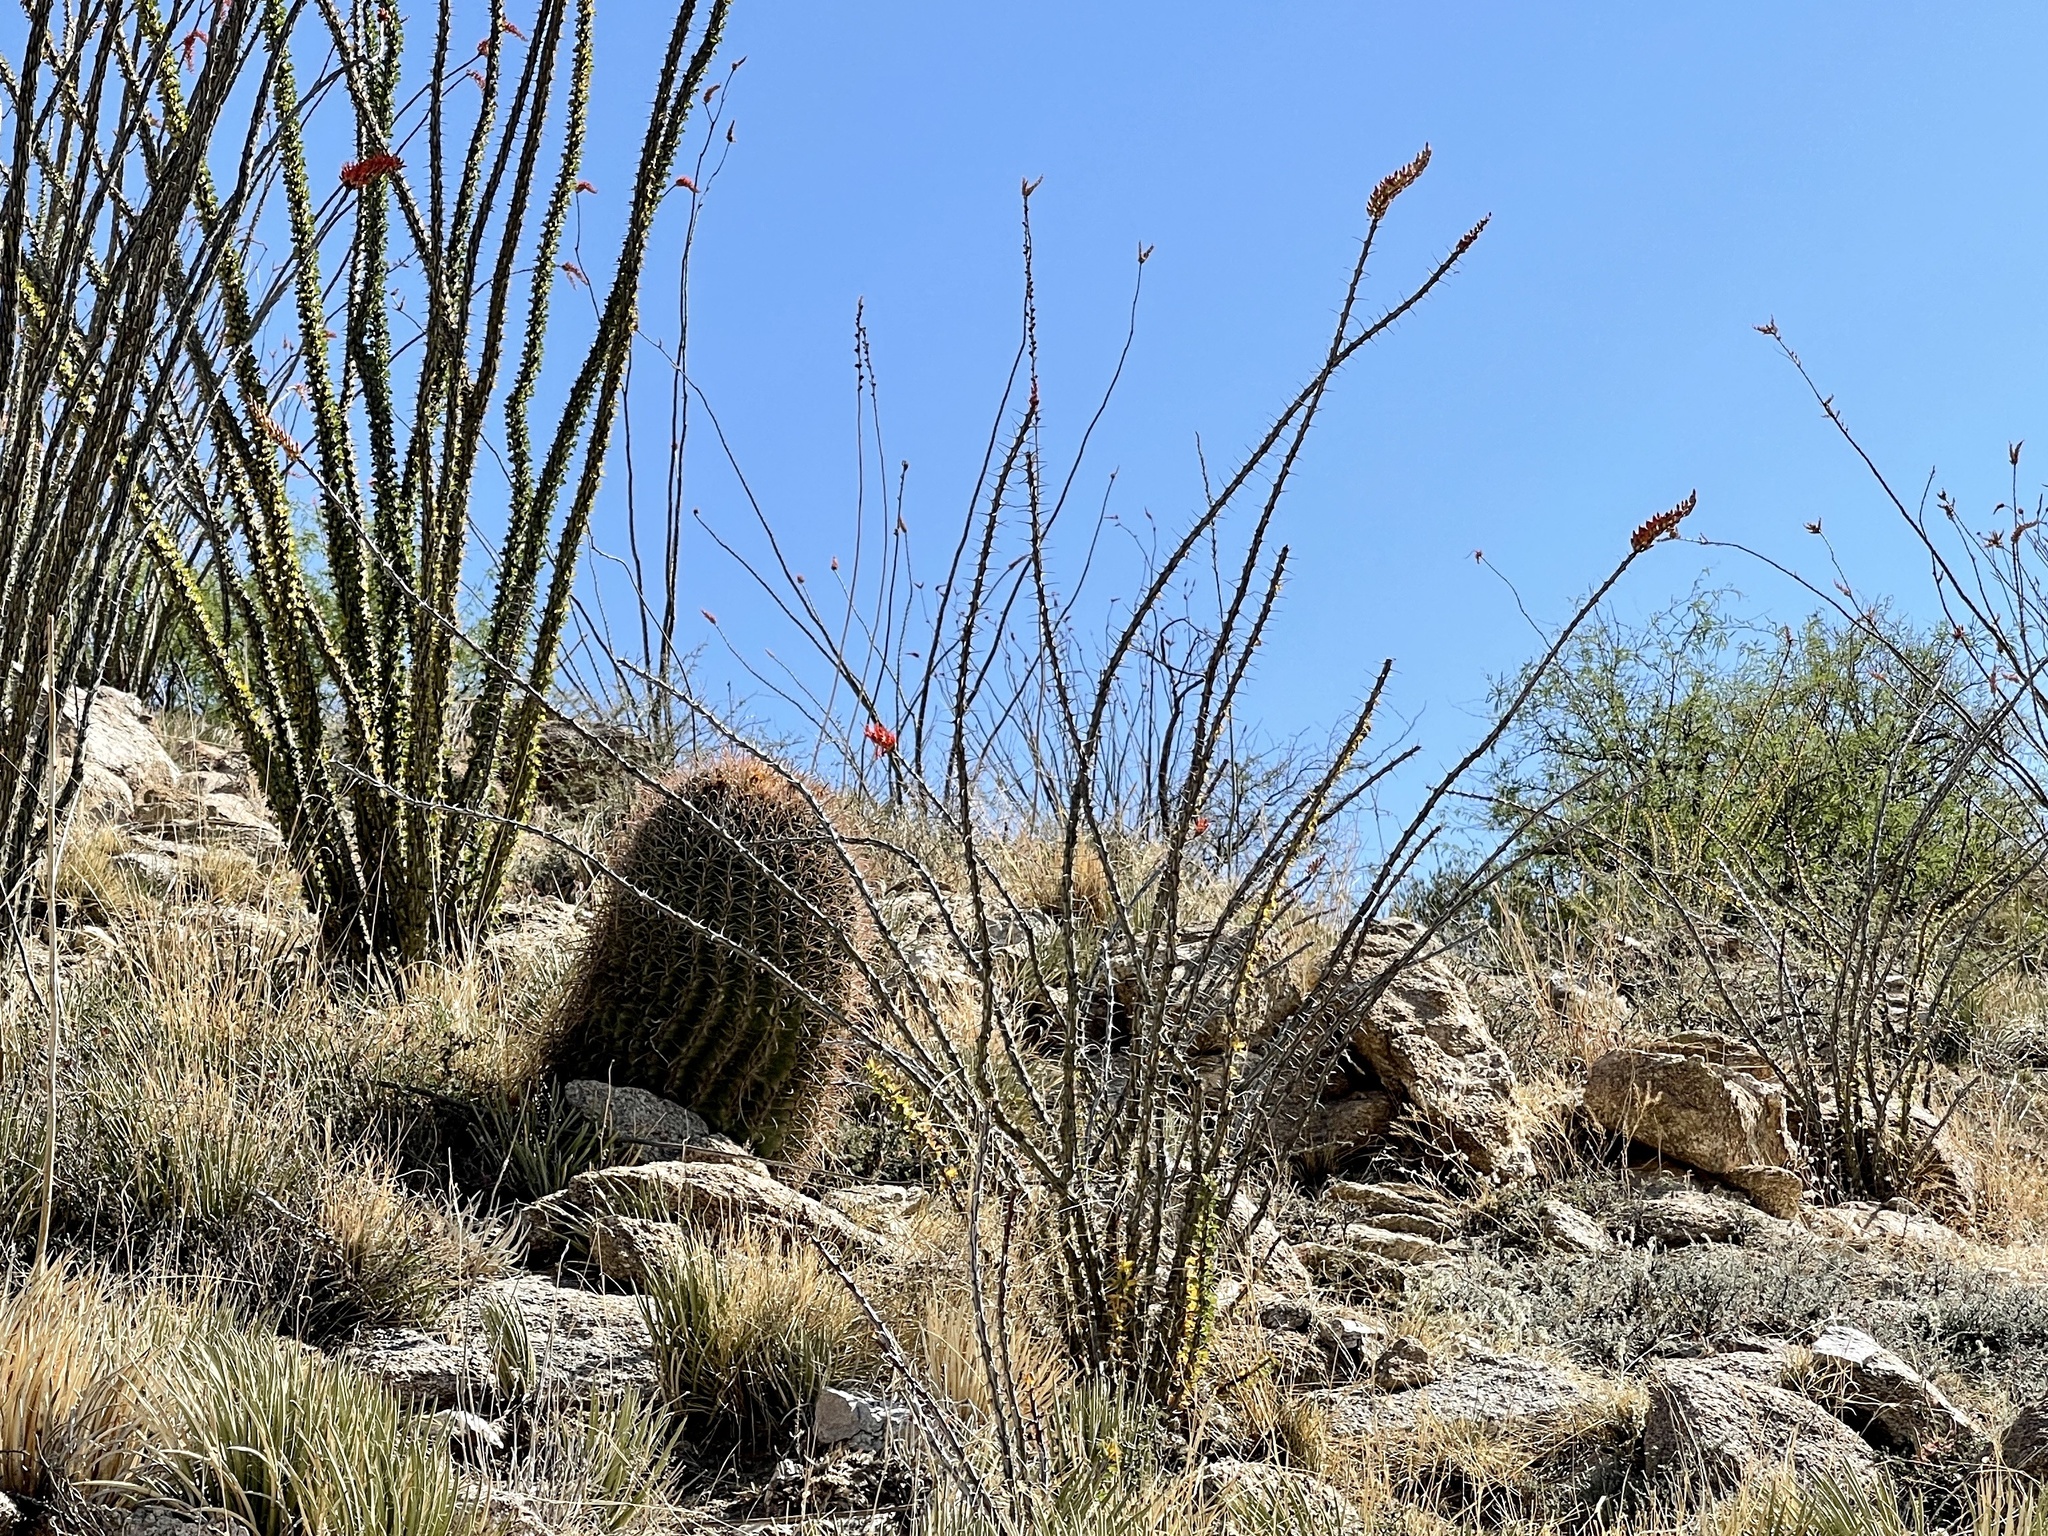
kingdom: Plantae
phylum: Tracheophyta
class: Magnoliopsida
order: Ericales
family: Fouquieriaceae
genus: Fouquieria
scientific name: Fouquieria splendens
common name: Vine-cactus
